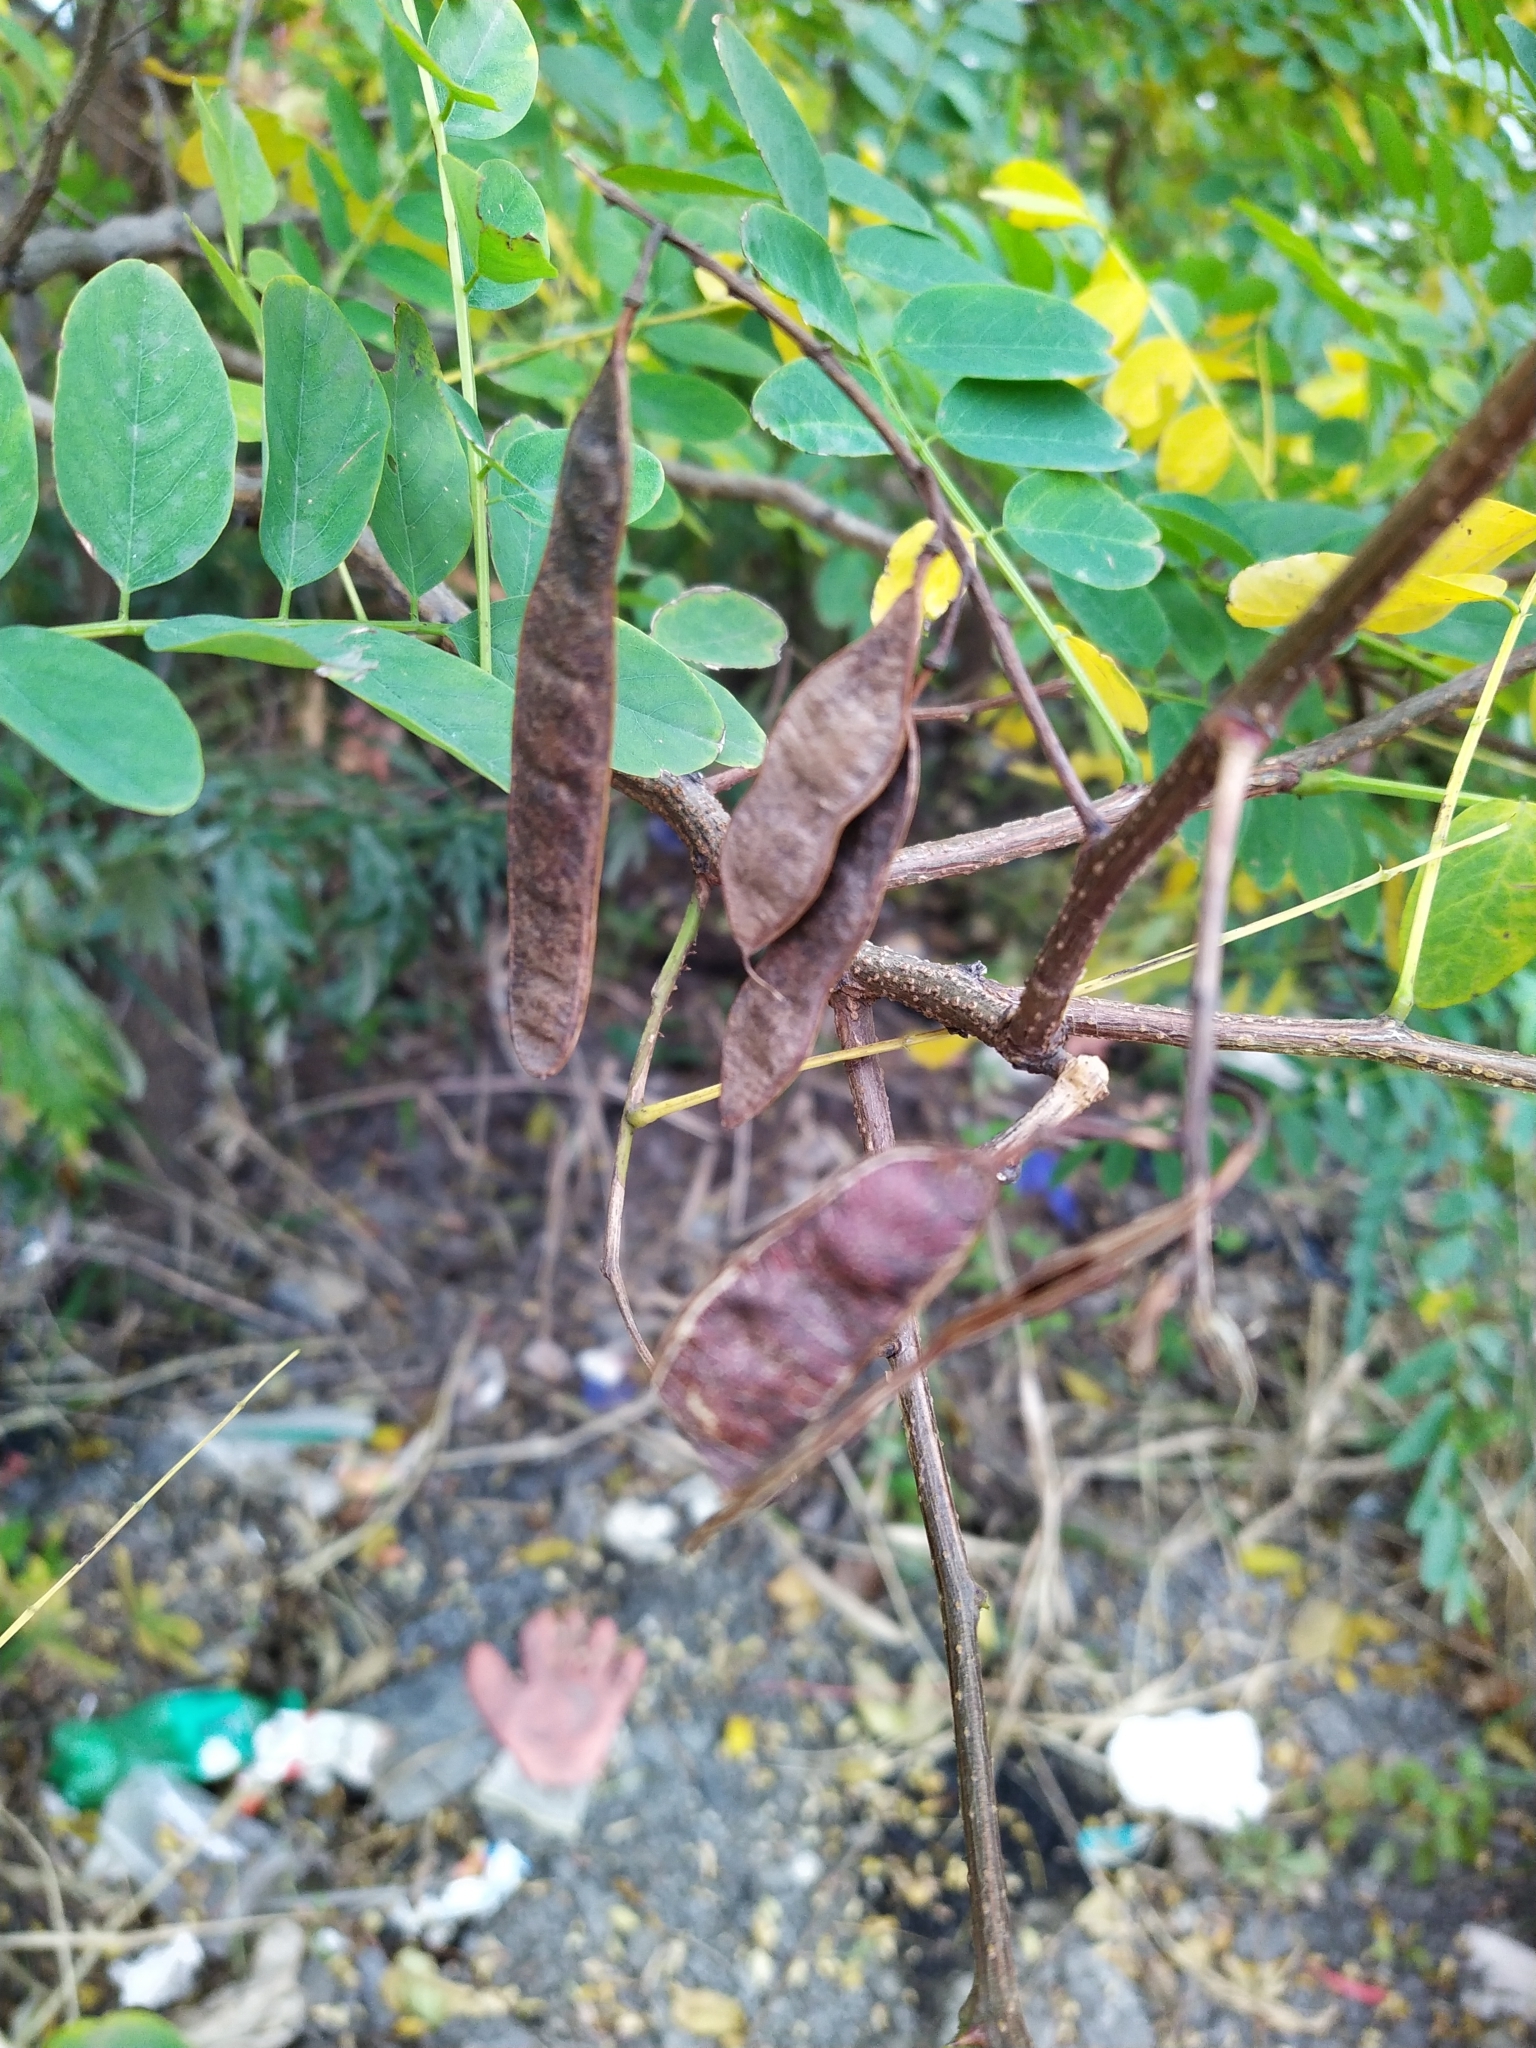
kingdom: Plantae
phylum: Tracheophyta
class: Magnoliopsida
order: Fabales
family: Fabaceae
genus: Gleditsia
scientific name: Gleditsia triacanthos
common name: Common honeylocust
